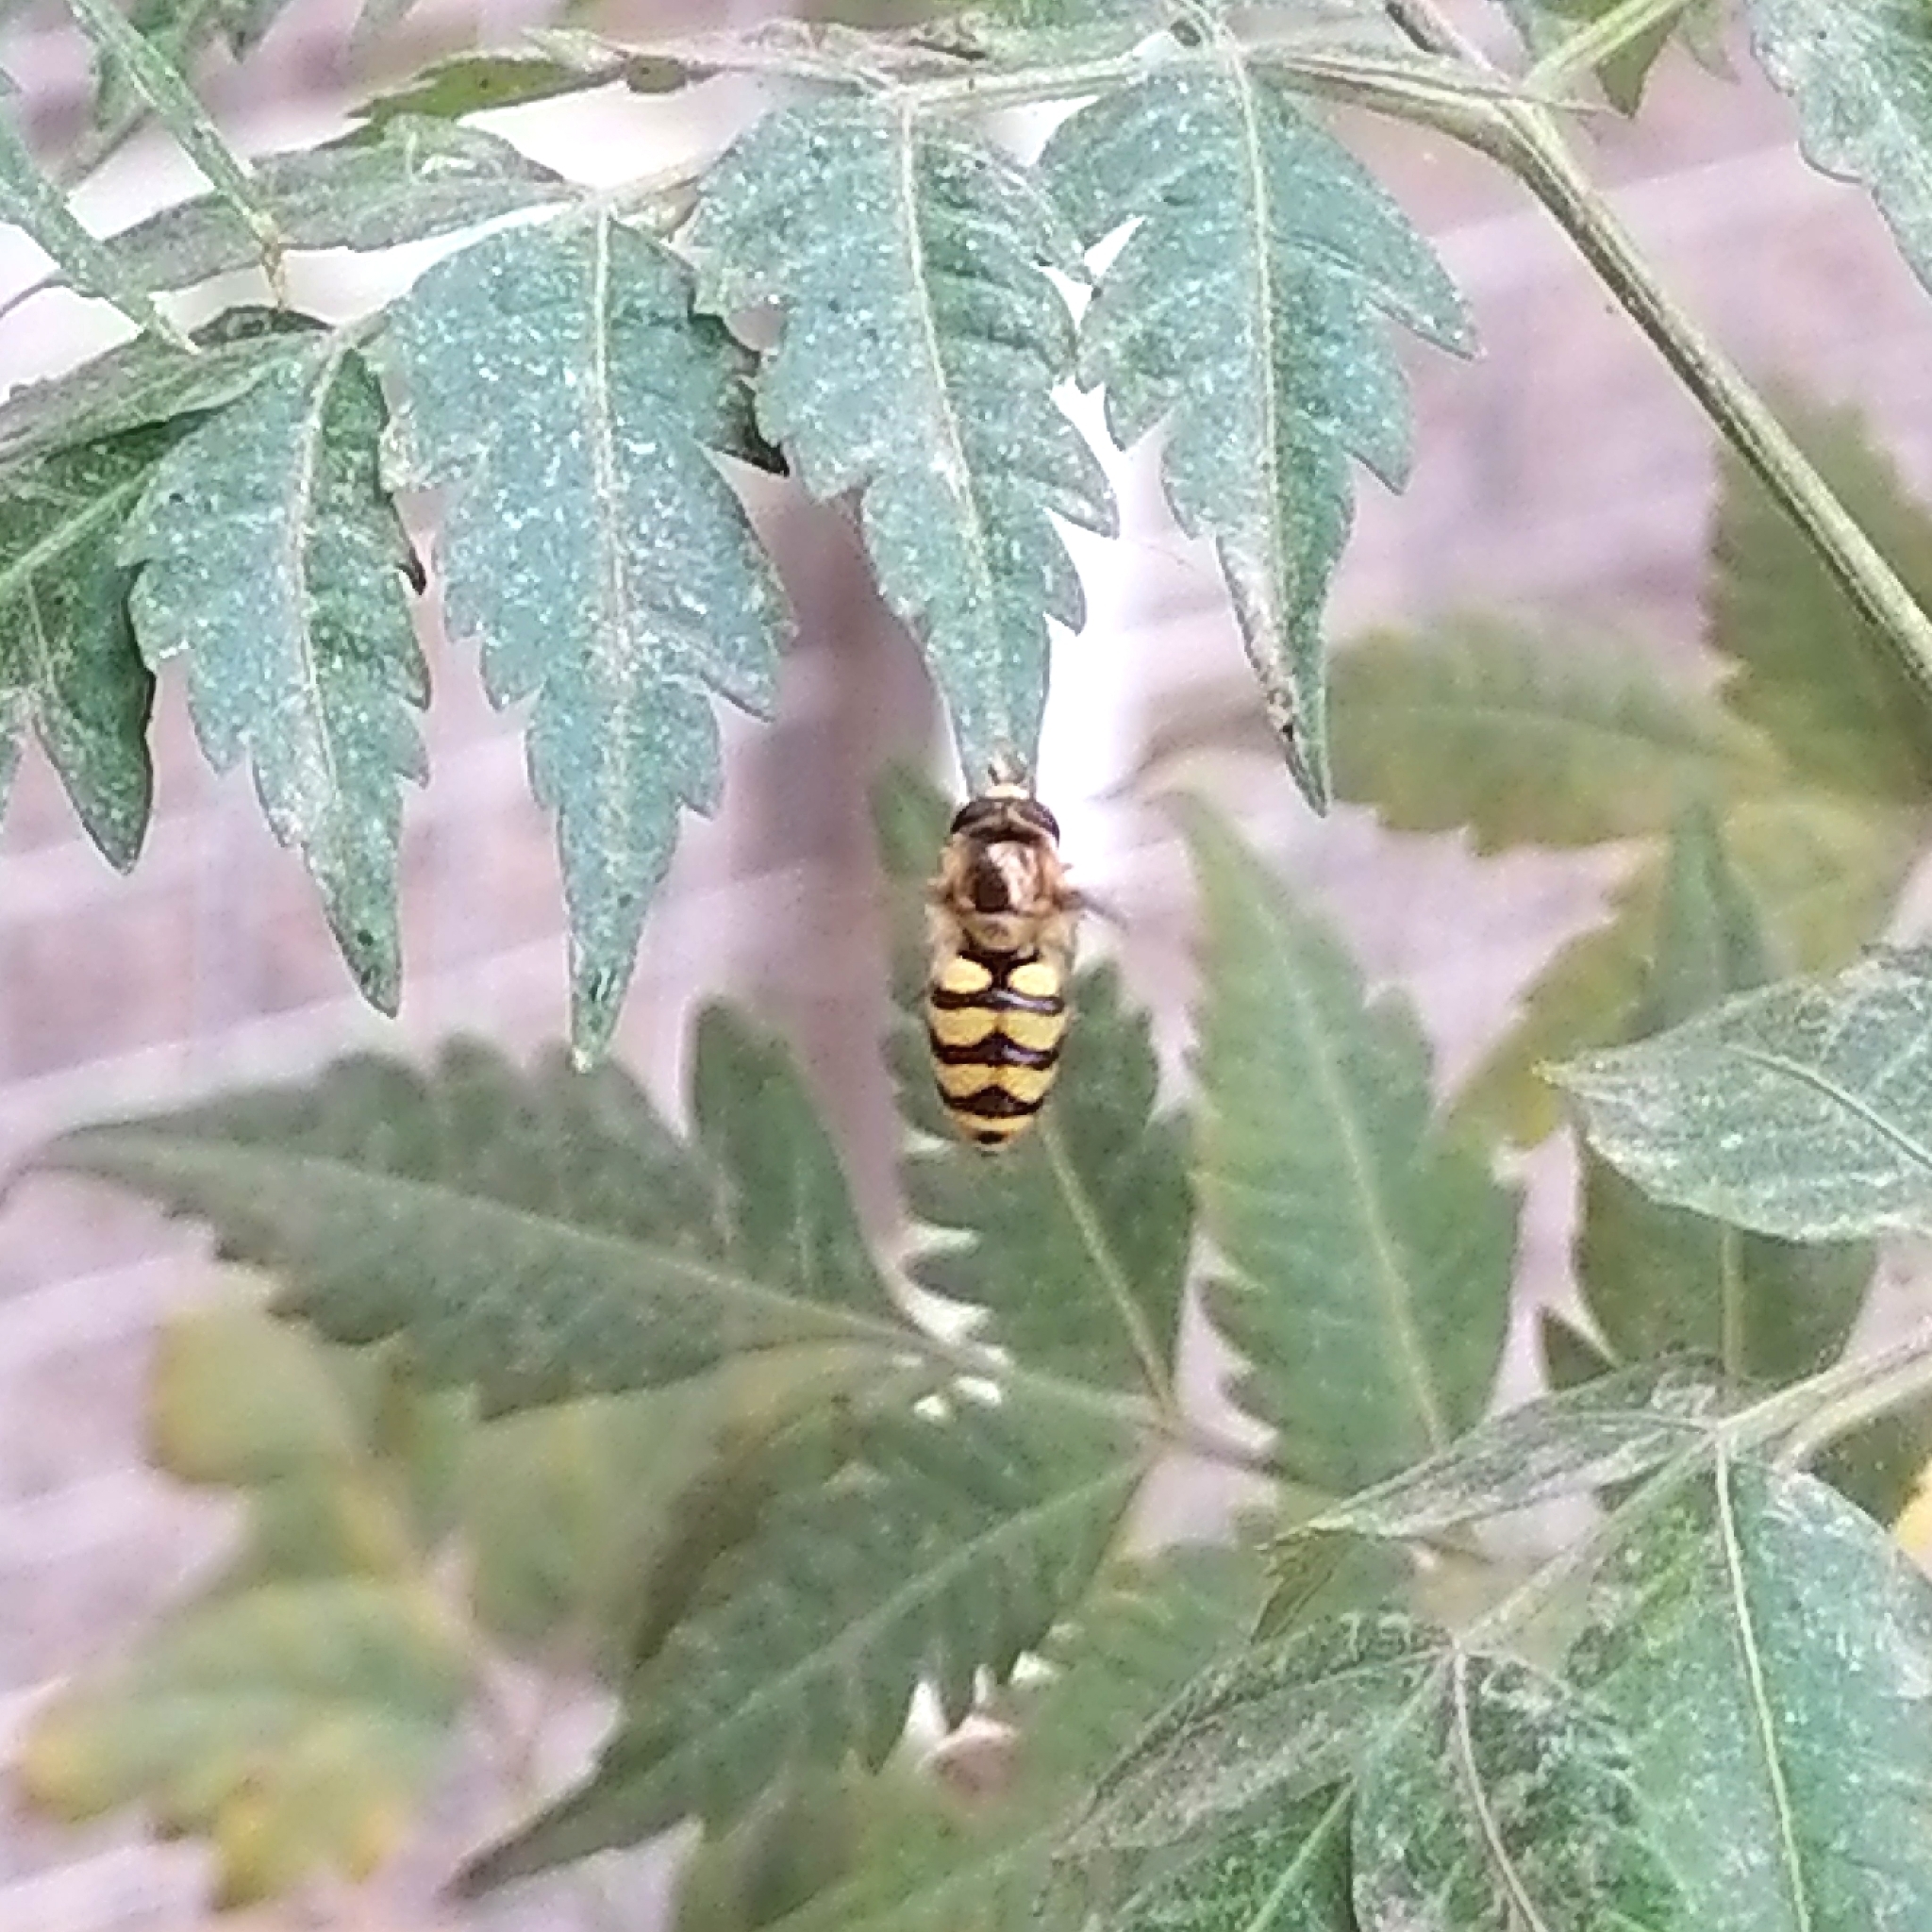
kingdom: Animalia
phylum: Arthropoda
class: Insecta
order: Diptera
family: Syrphidae
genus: Eupeodes
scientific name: Eupeodes corollae
